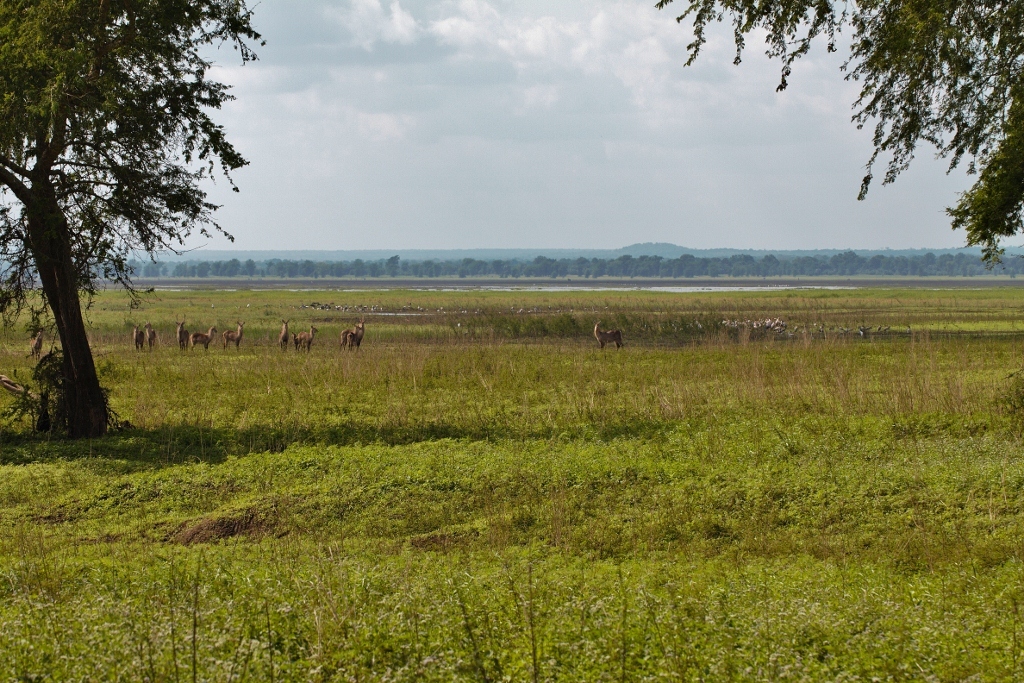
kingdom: Animalia
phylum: Chordata
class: Mammalia
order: Artiodactyla
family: Bovidae
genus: Kobus
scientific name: Kobus ellipsiprymnus
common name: Waterbuck
